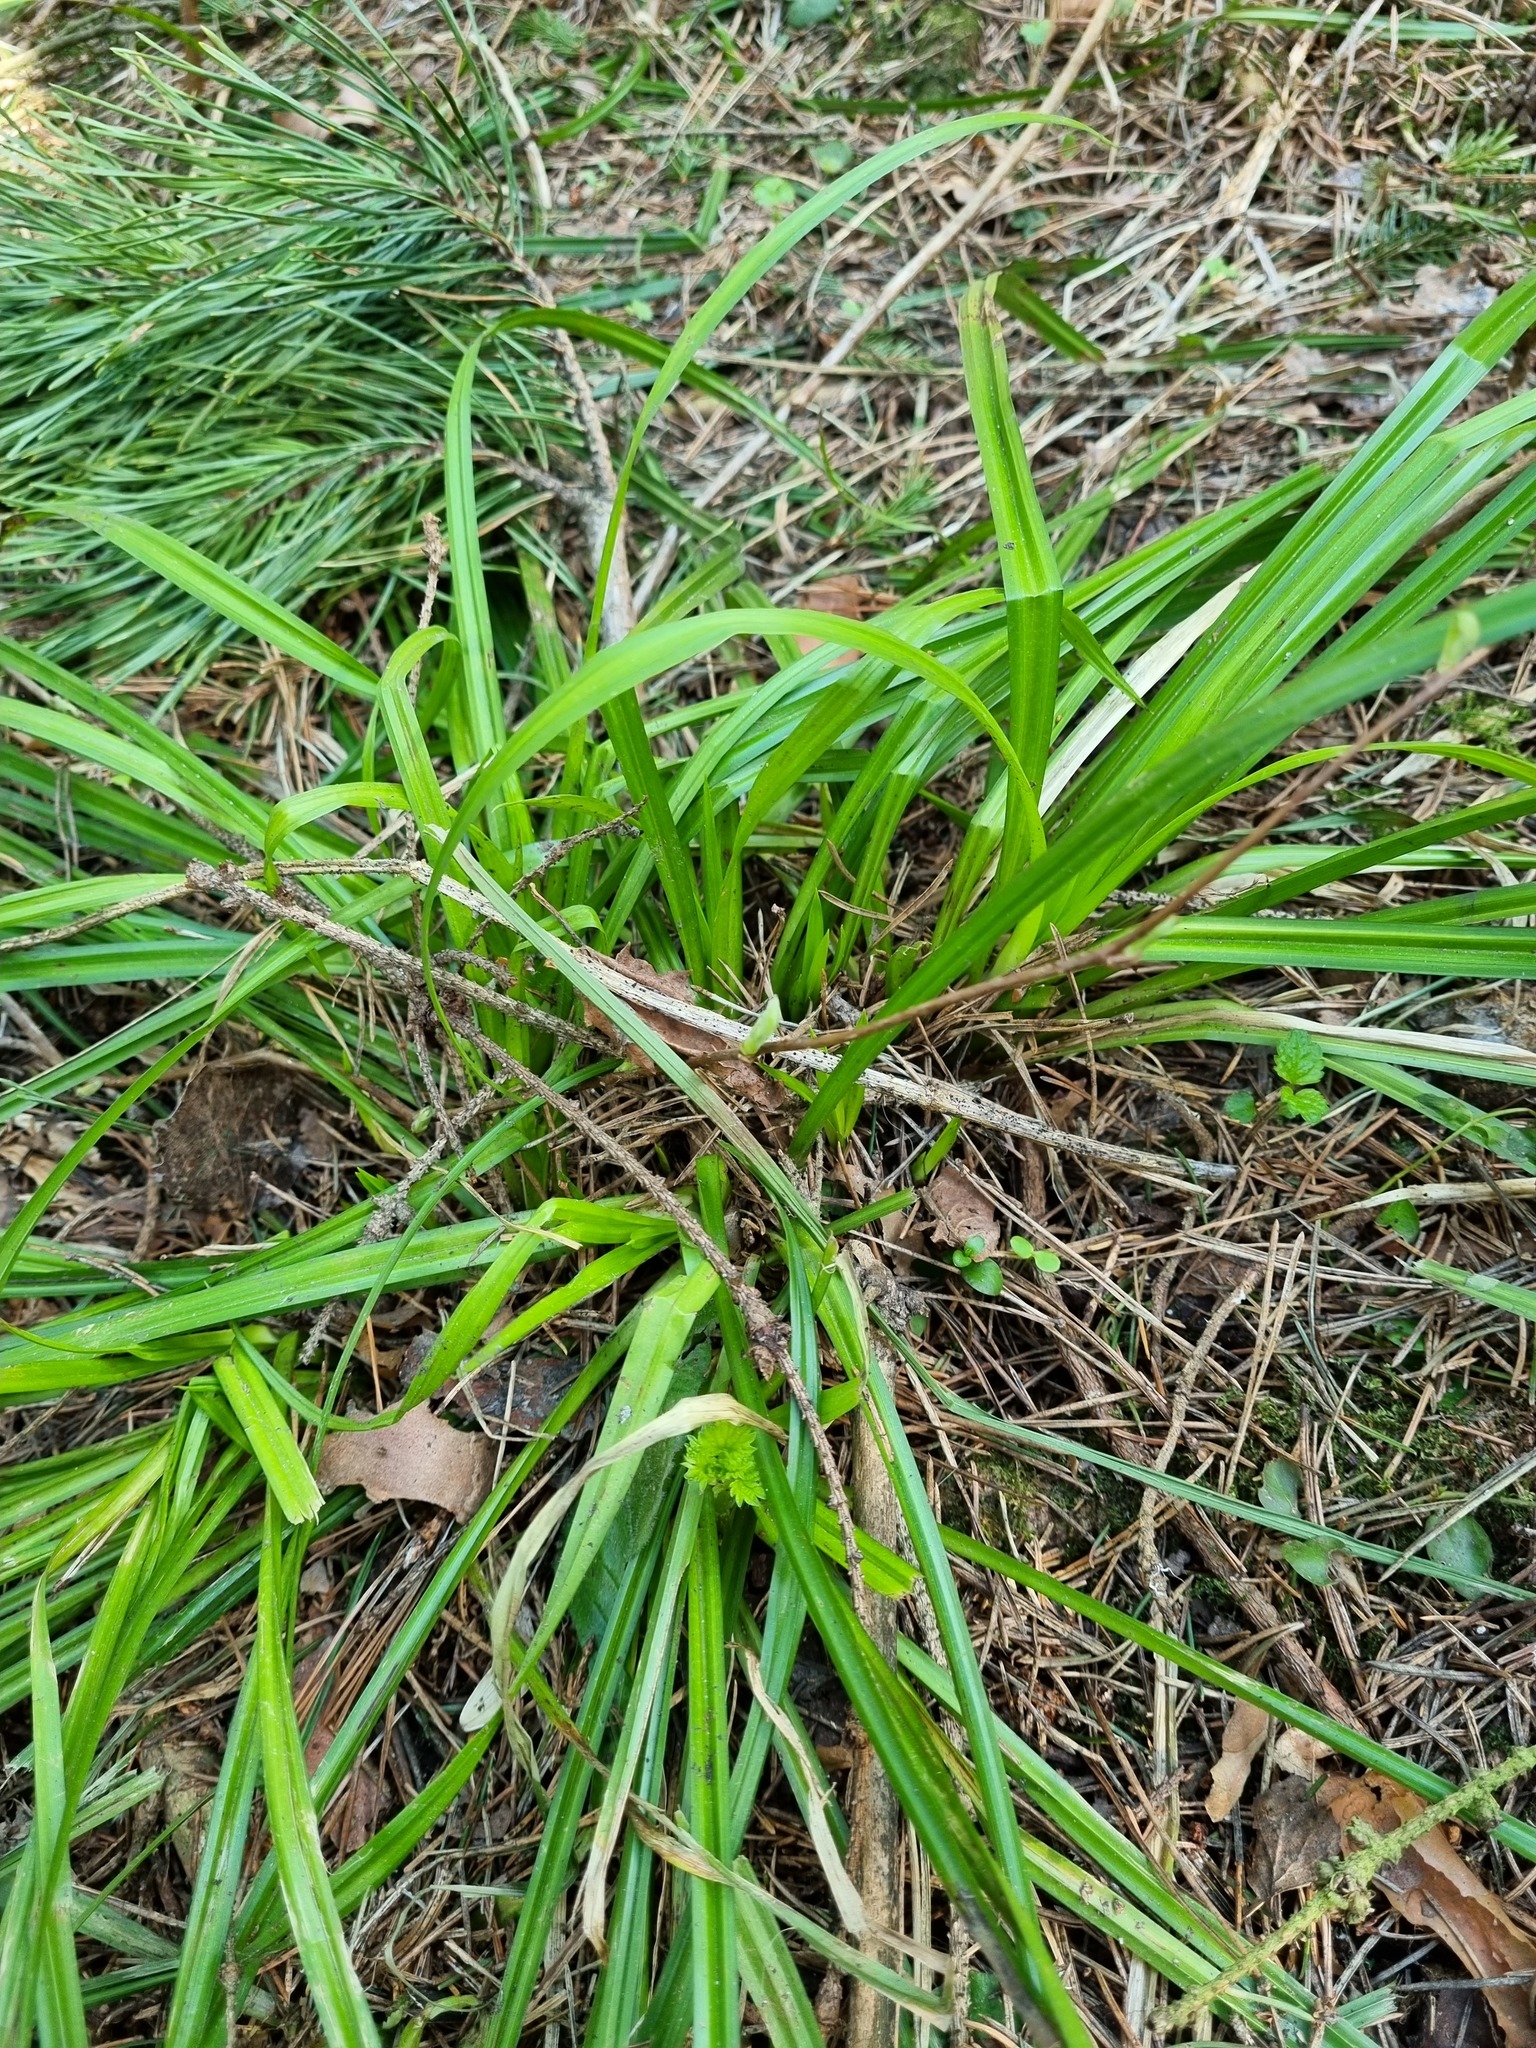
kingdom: Plantae
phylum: Tracheophyta
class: Liliopsida
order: Poales
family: Cyperaceae
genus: Carex
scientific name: Carex sylvatica
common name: Wood-sedge
